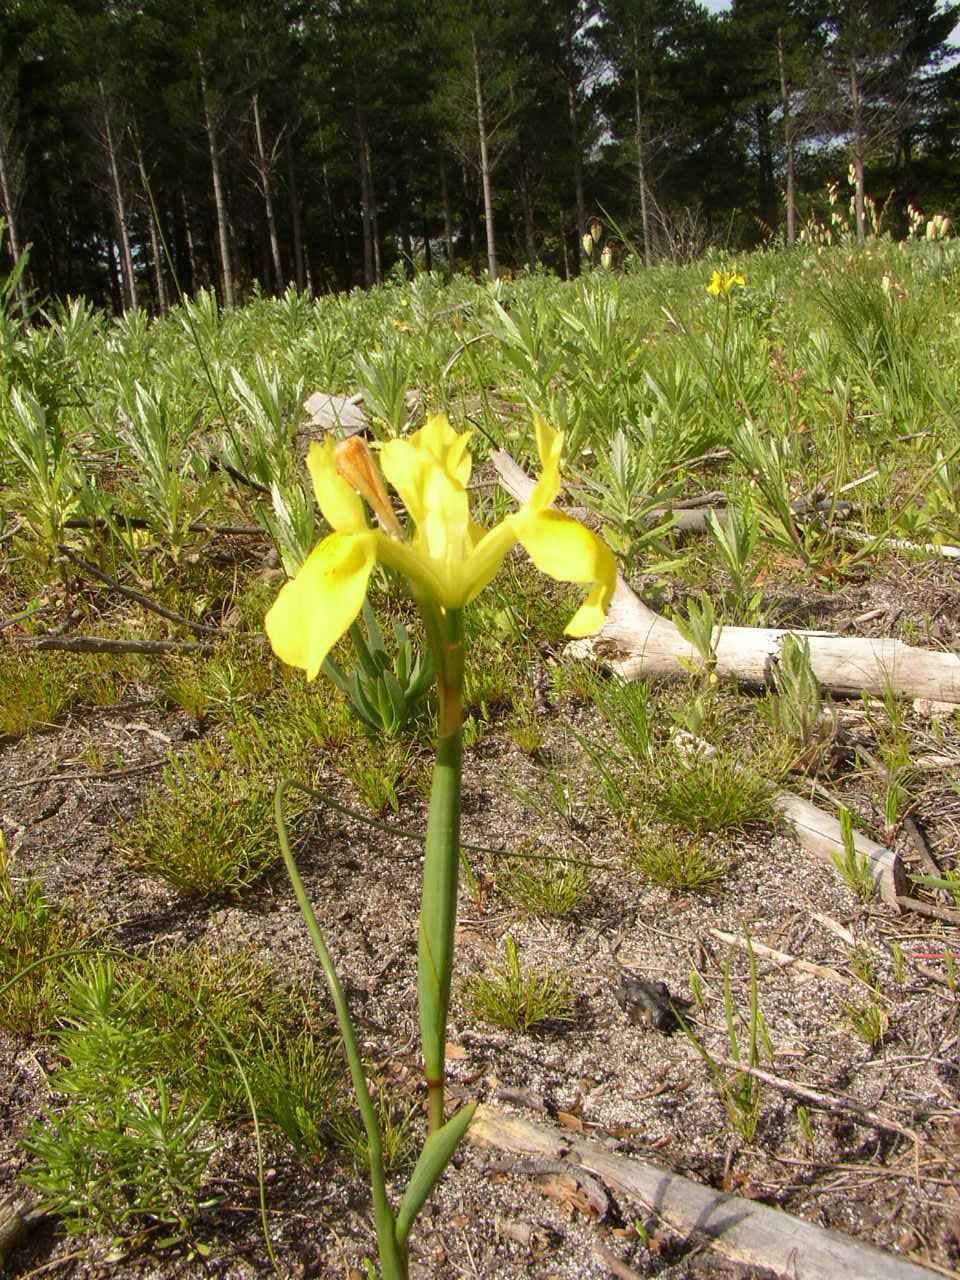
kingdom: Plantae
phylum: Tracheophyta
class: Liliopsida
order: Asparagales
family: Iridaceae
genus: Moraea
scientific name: Moraea neglecta
